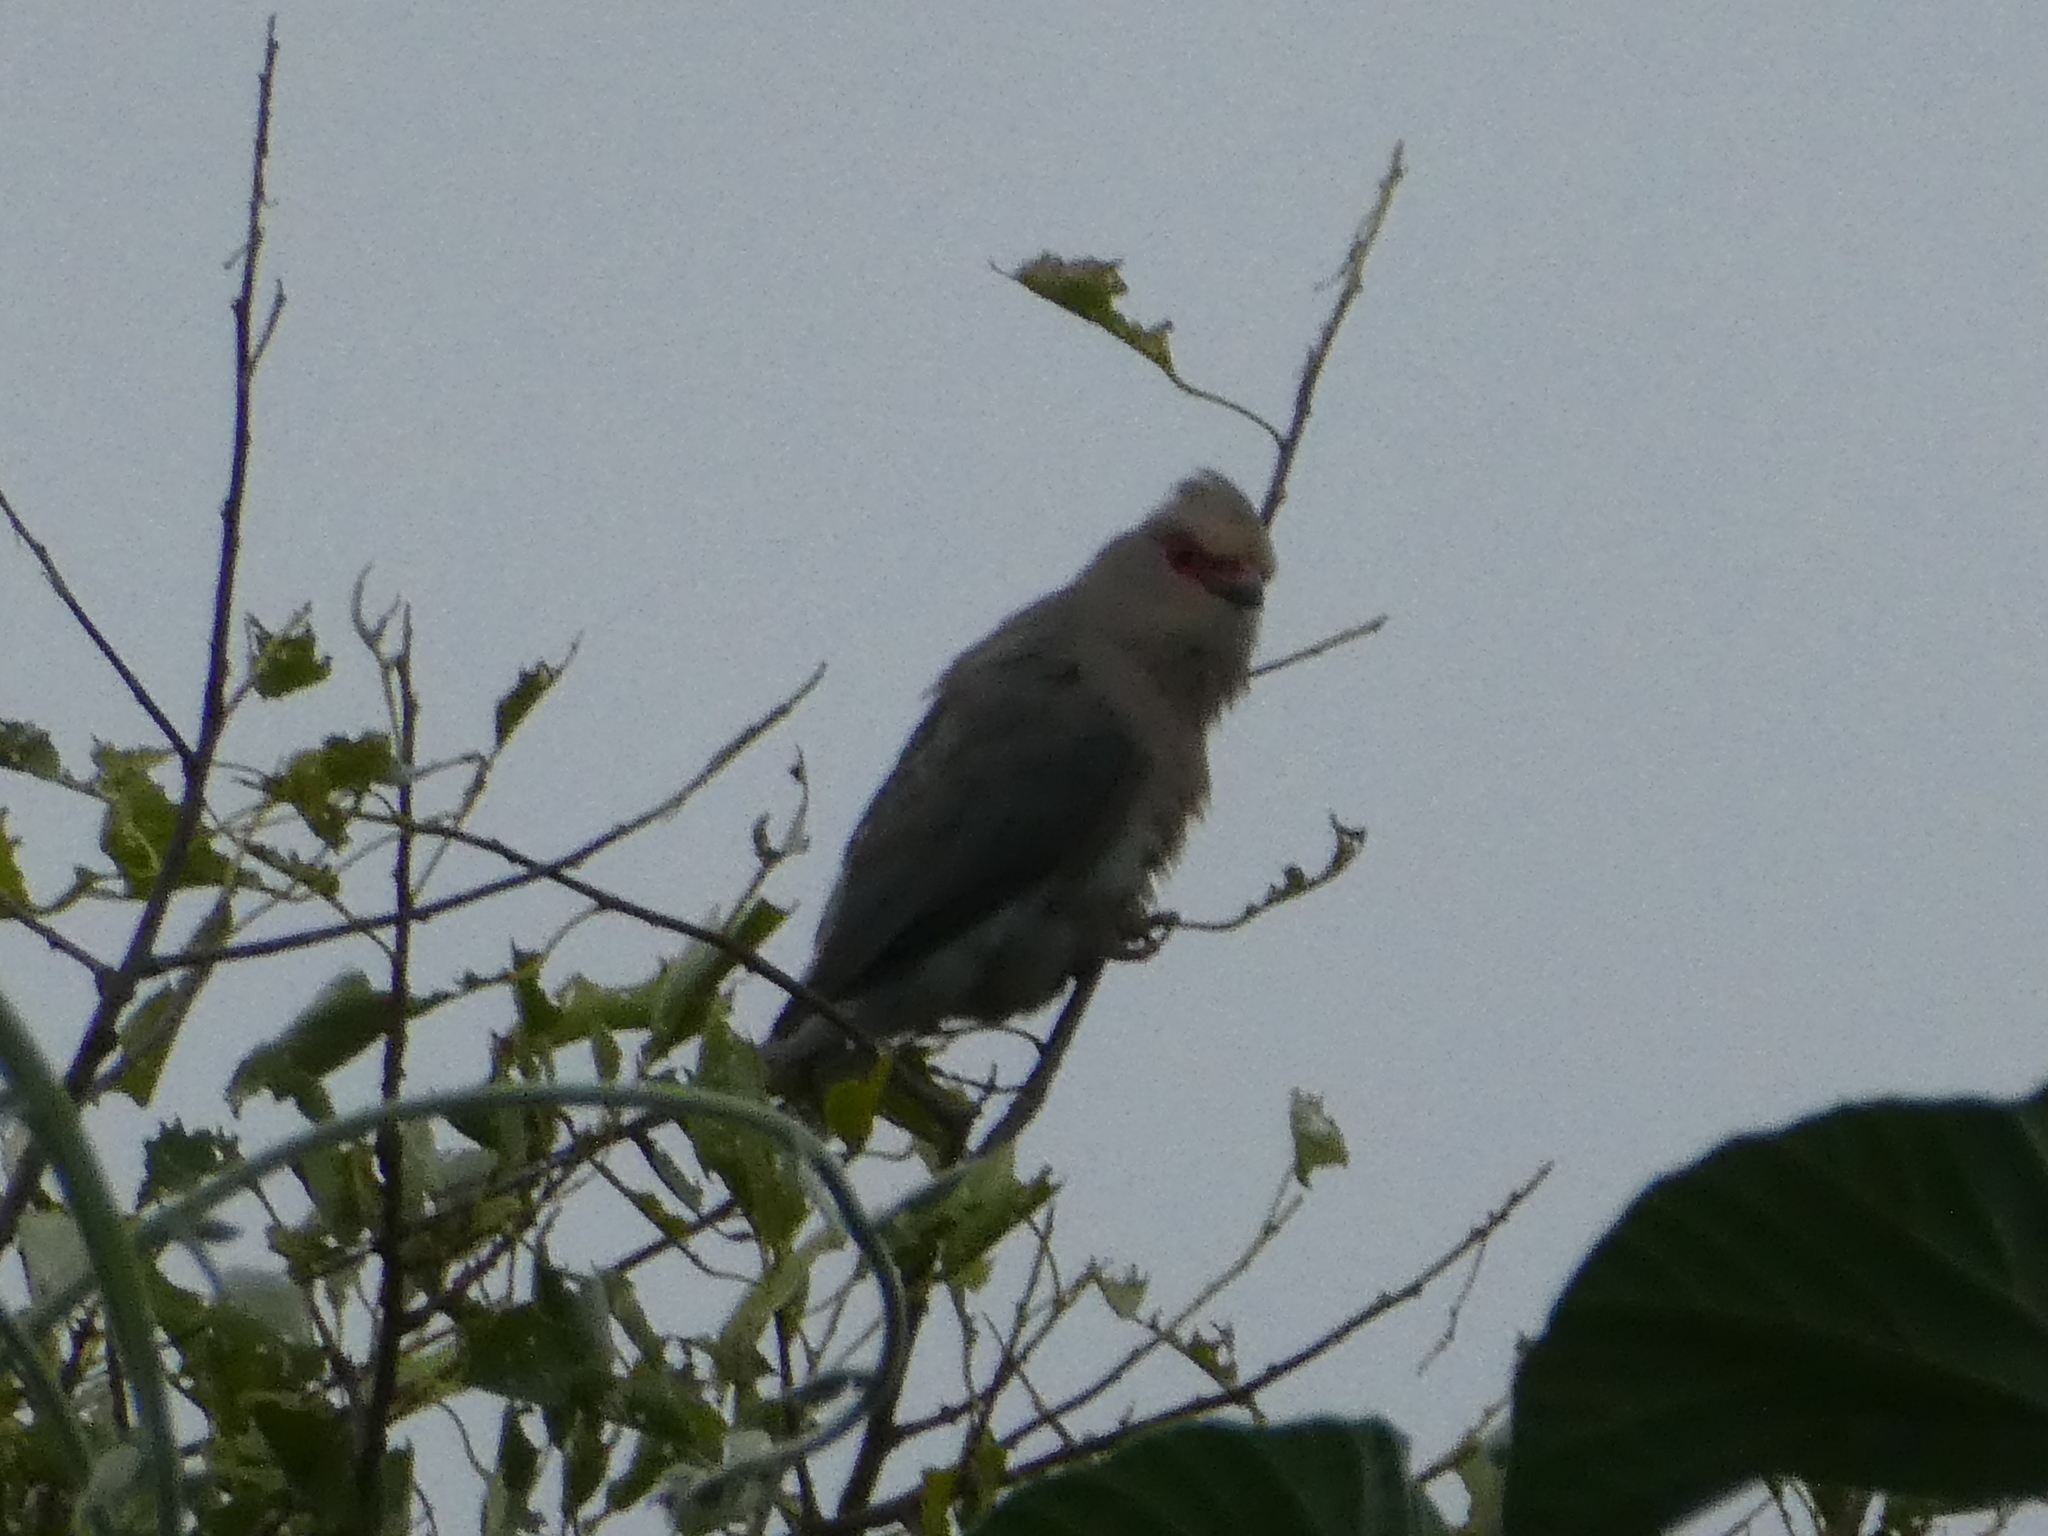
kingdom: Animalia
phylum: Chordata
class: Aves
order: Coliiformes
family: Coliidae
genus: Urocolius
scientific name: Urocolius indicus
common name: Red-faced mousebird
